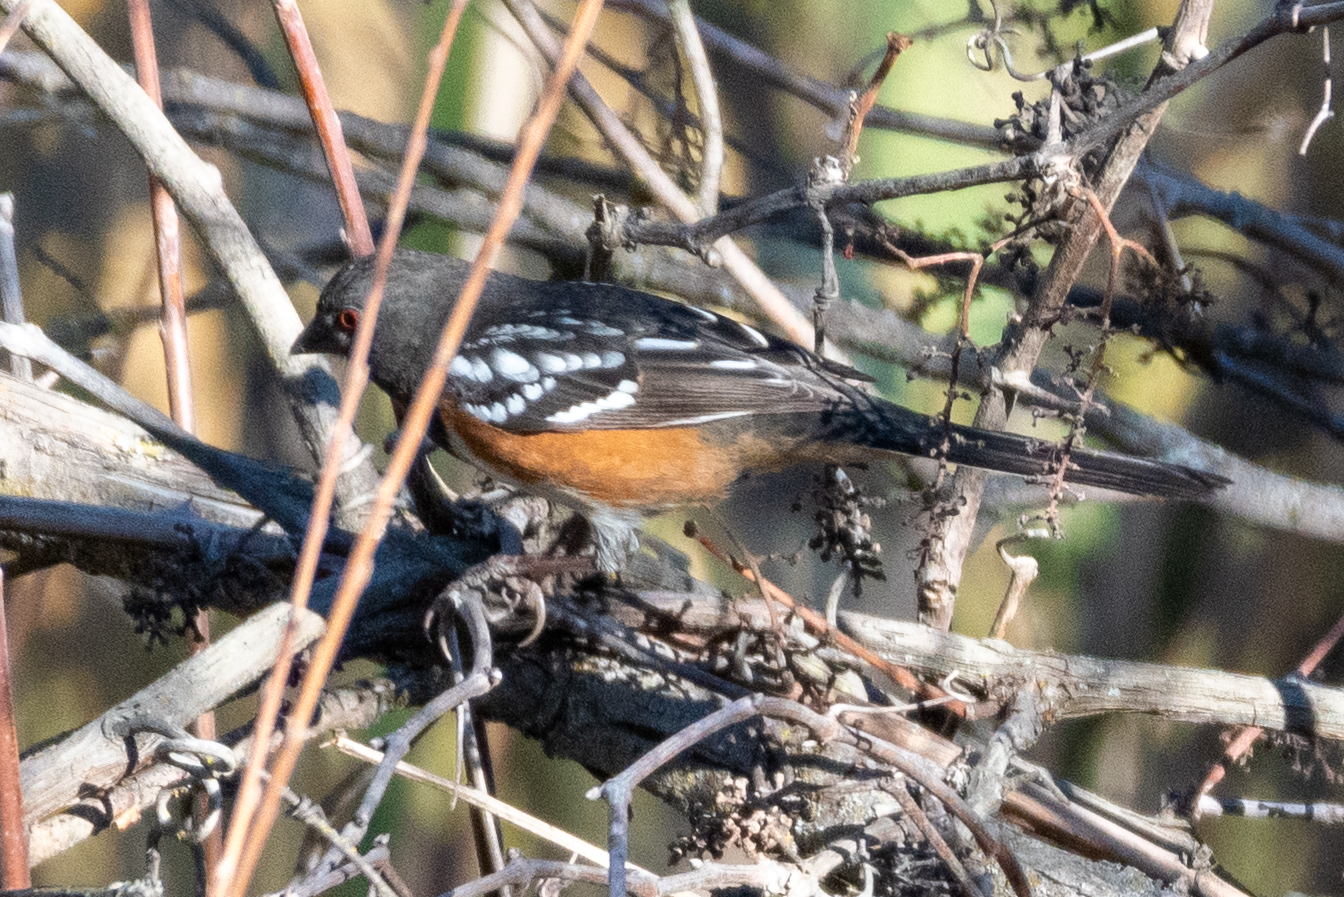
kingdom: Animalia
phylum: Chordata
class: Aves
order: Passeriformes
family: Passerellidae
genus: Pipilo
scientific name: Pipilo maculatus
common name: Spotted towhee
